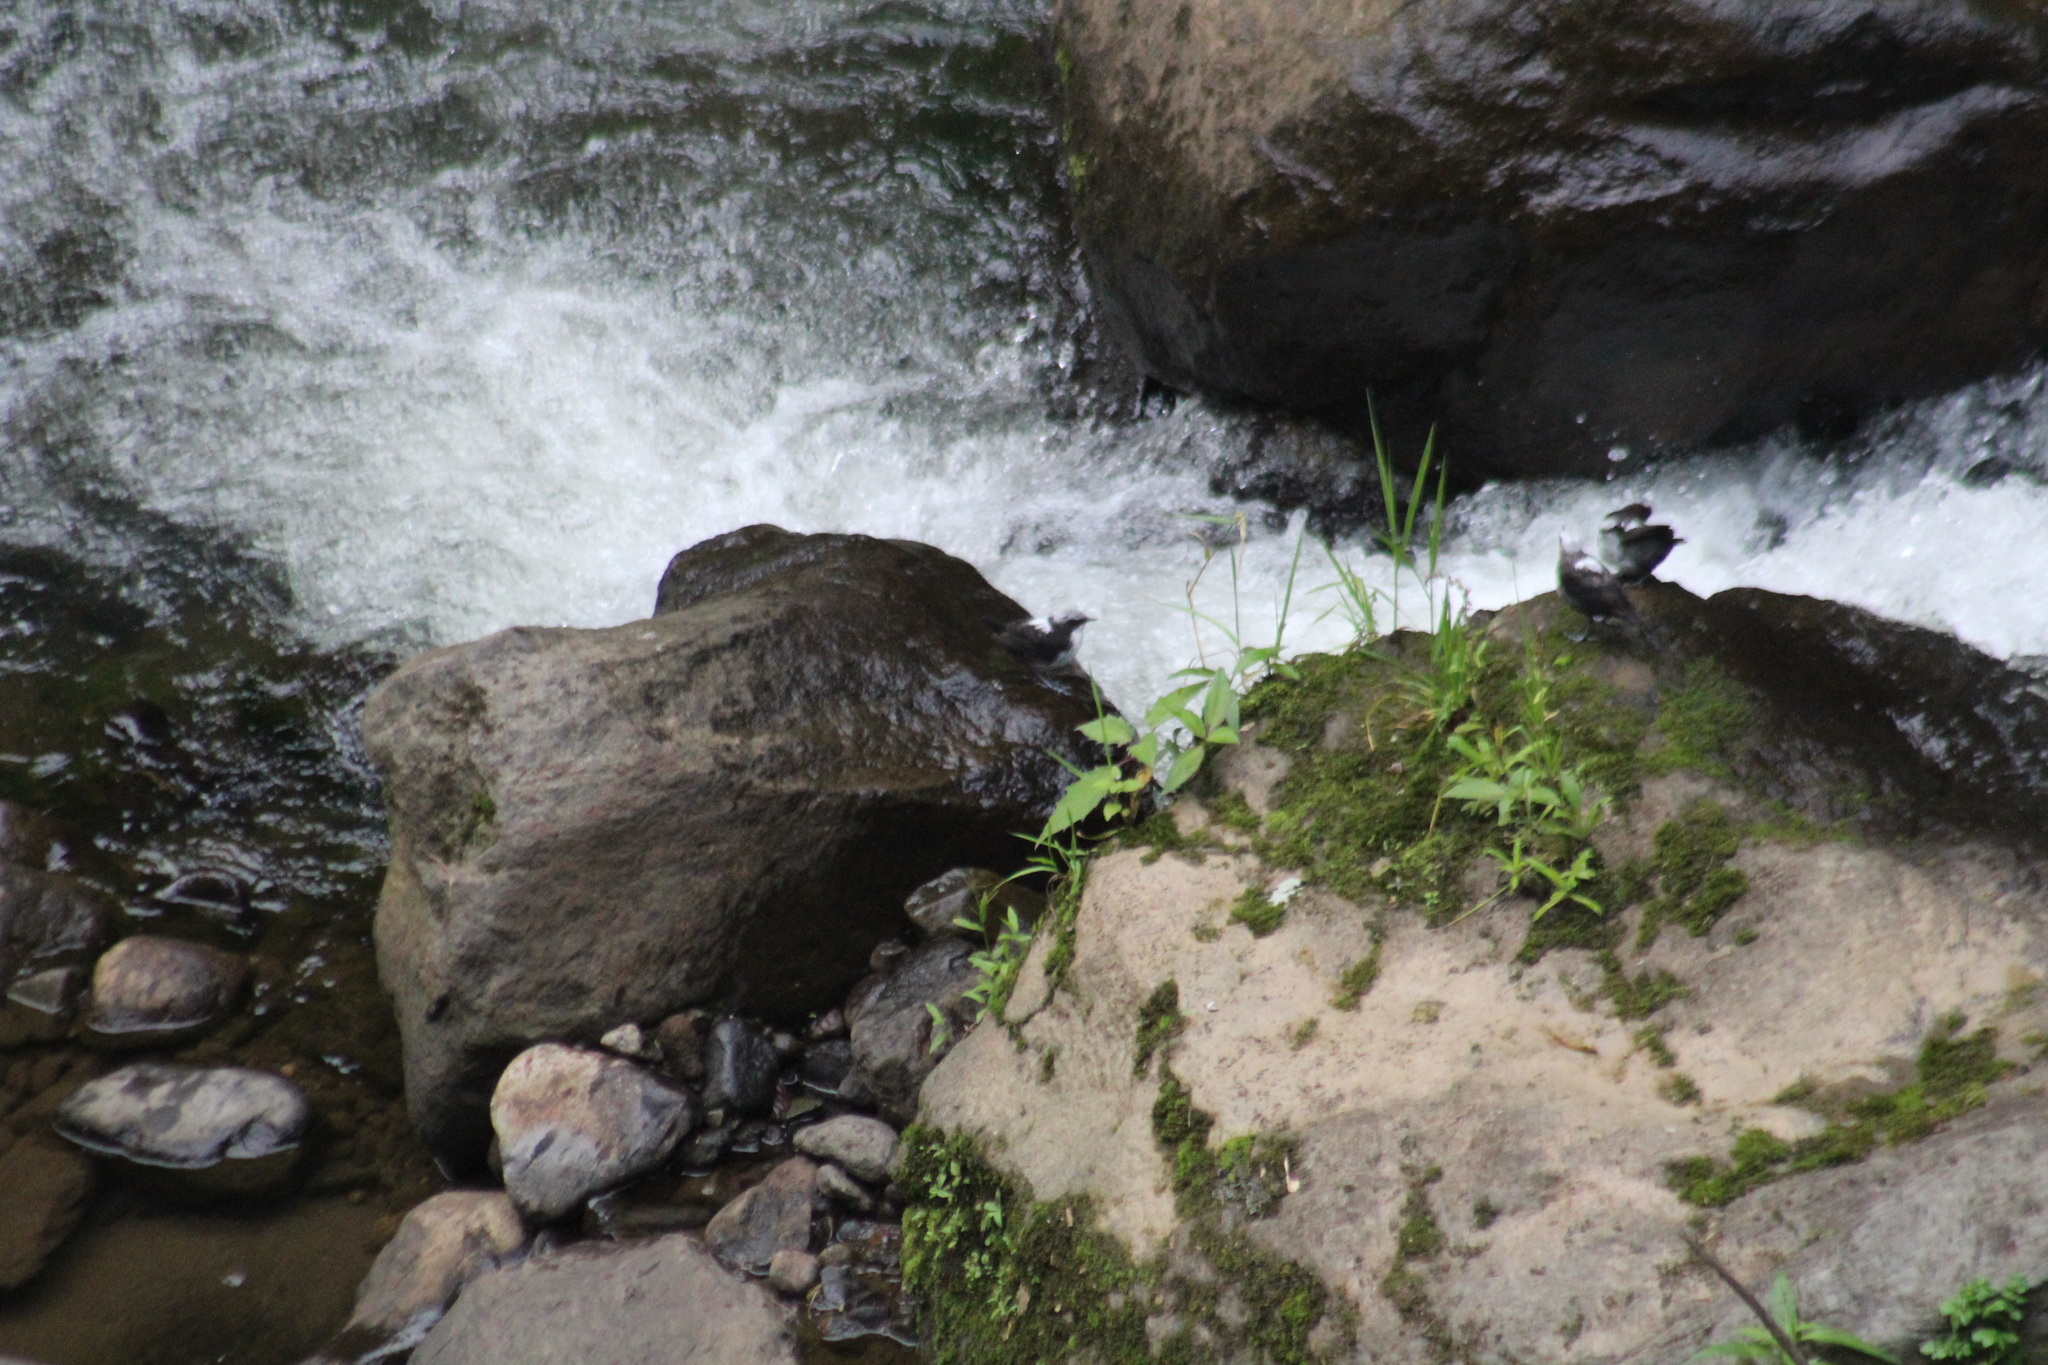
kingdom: Animalia
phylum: Chordata
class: Aves
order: Passeriformes
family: Cinclidae
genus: Cinclus
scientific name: Cinclus leucocephalus
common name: White-capped dipper
